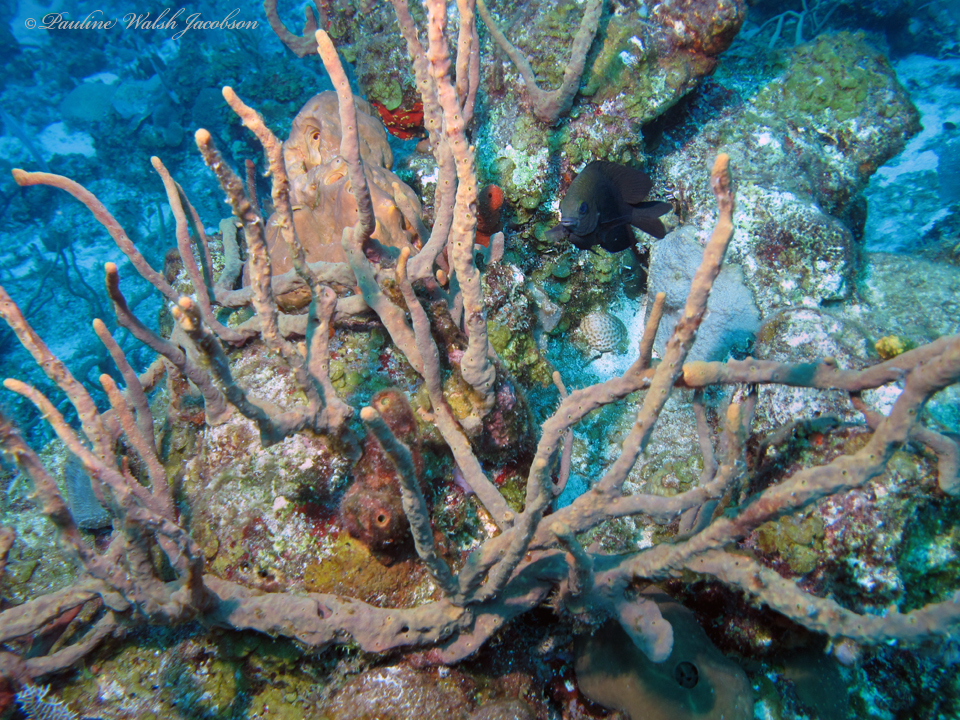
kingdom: Animalia
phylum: Porifera
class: Demospongiae
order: Verongiida
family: Aplysinidae
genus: Aplysina
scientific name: Aplysina cauliformis
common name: Branching candle sponge
